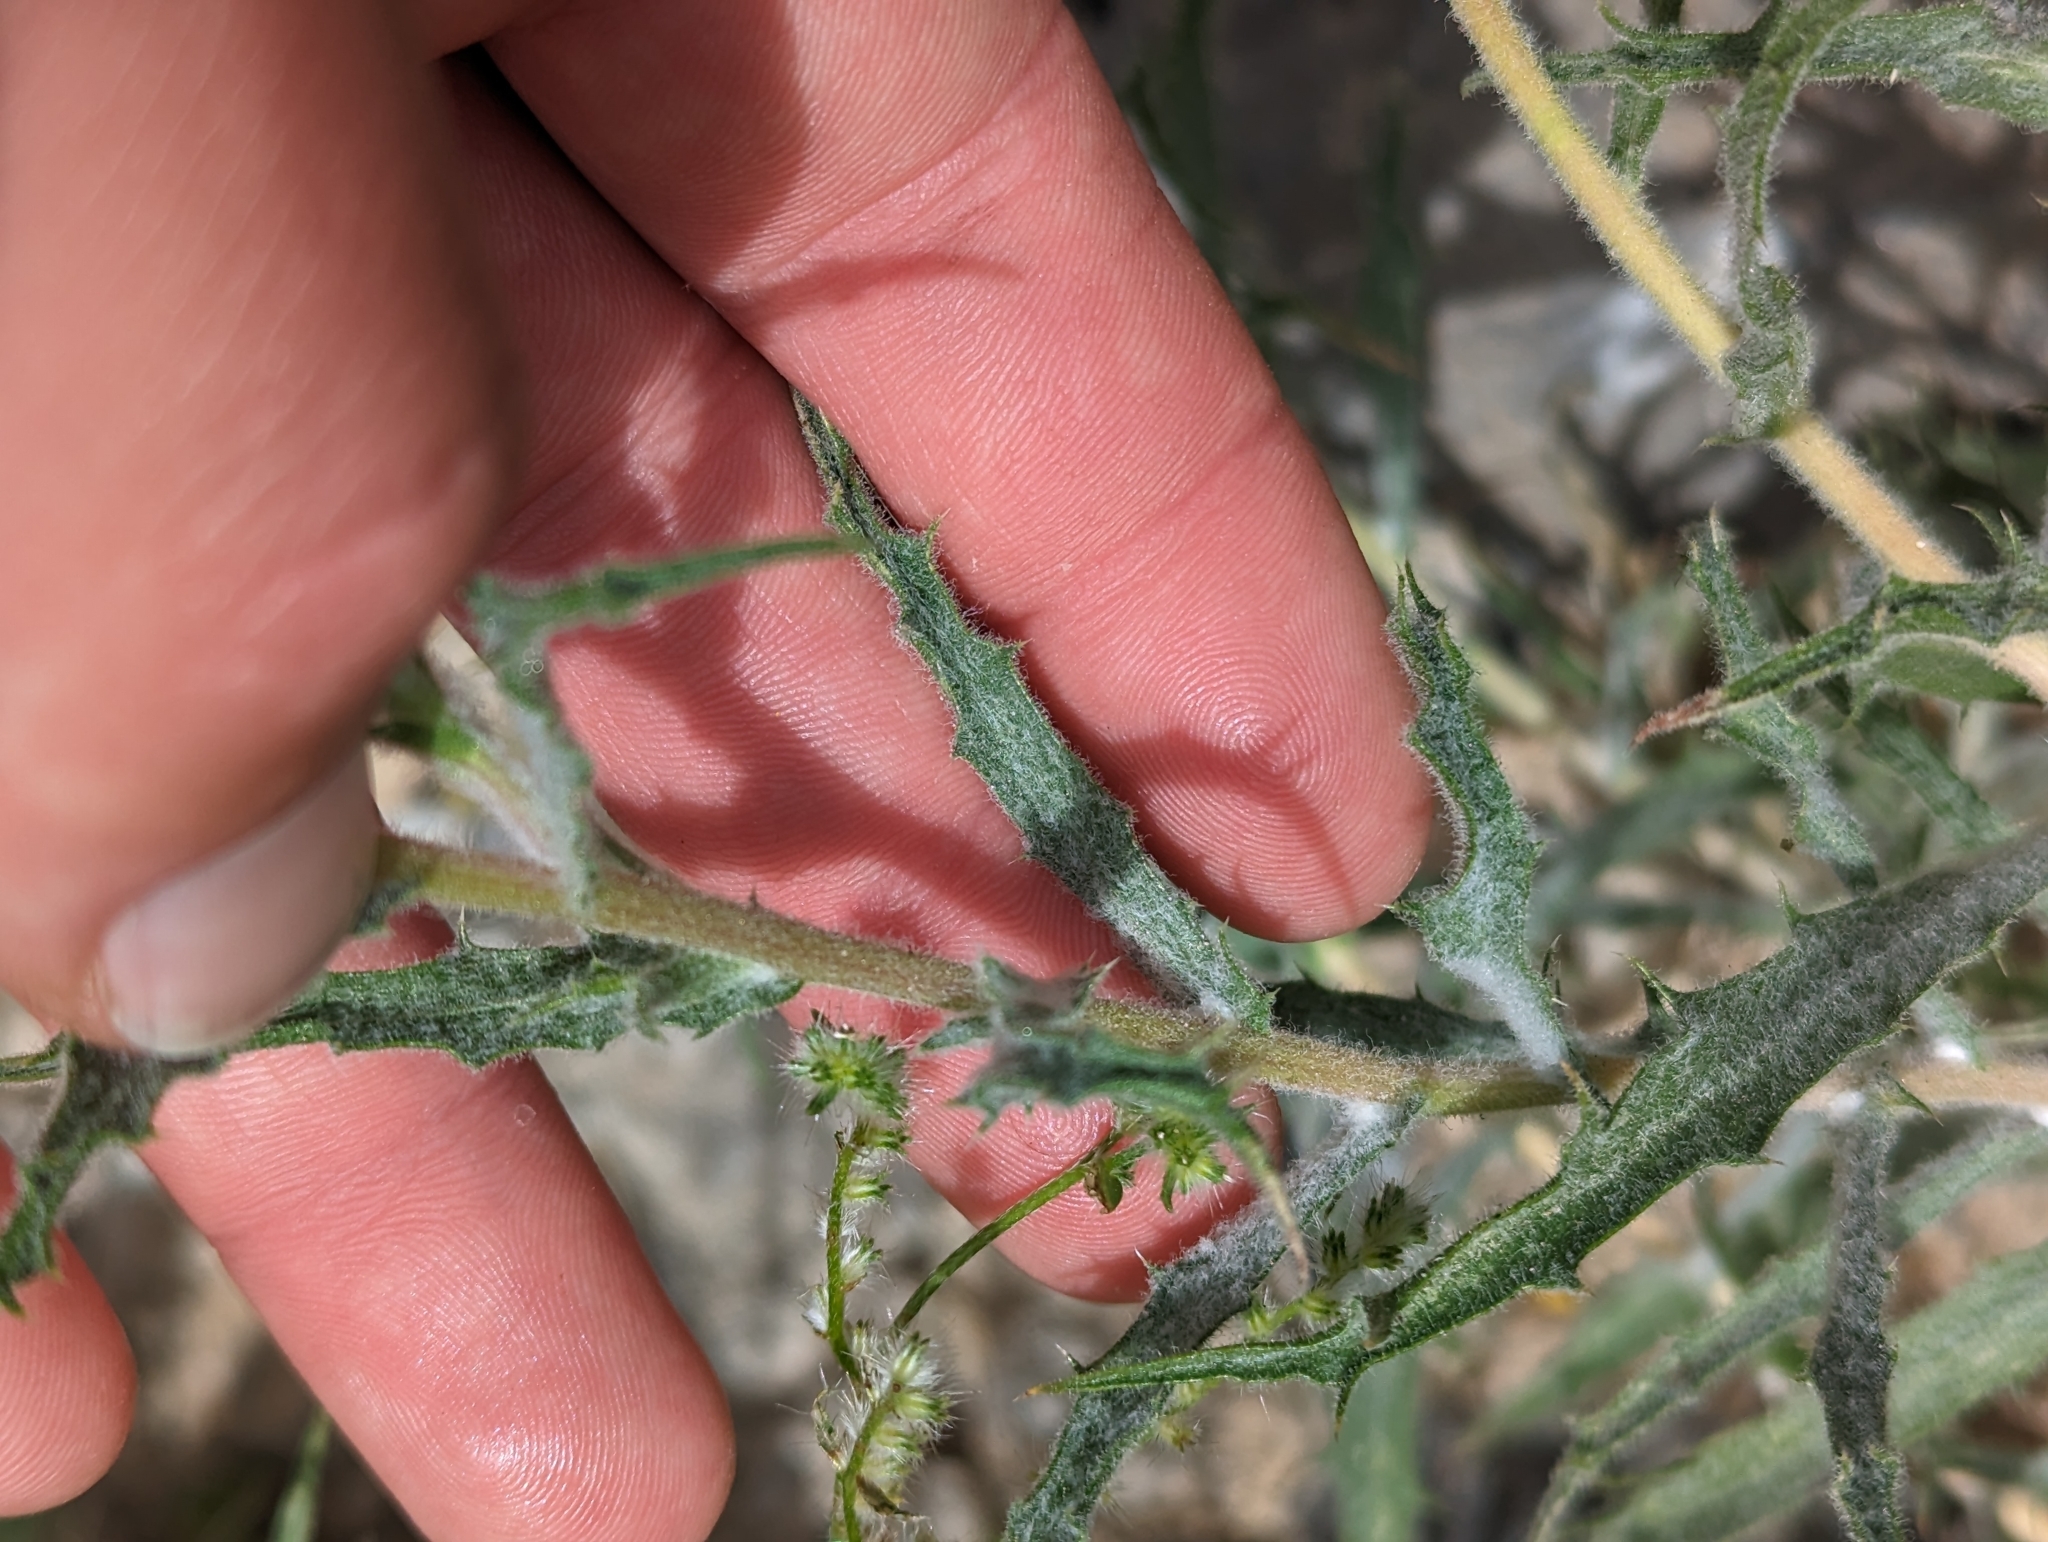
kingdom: Plantae
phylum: Tracheophyta
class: Magnoliopsida
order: Asterales
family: Asteraceae
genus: Xylorhiza
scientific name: Xylorhiza tortifolia
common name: Hurt-leaf woody-aster
